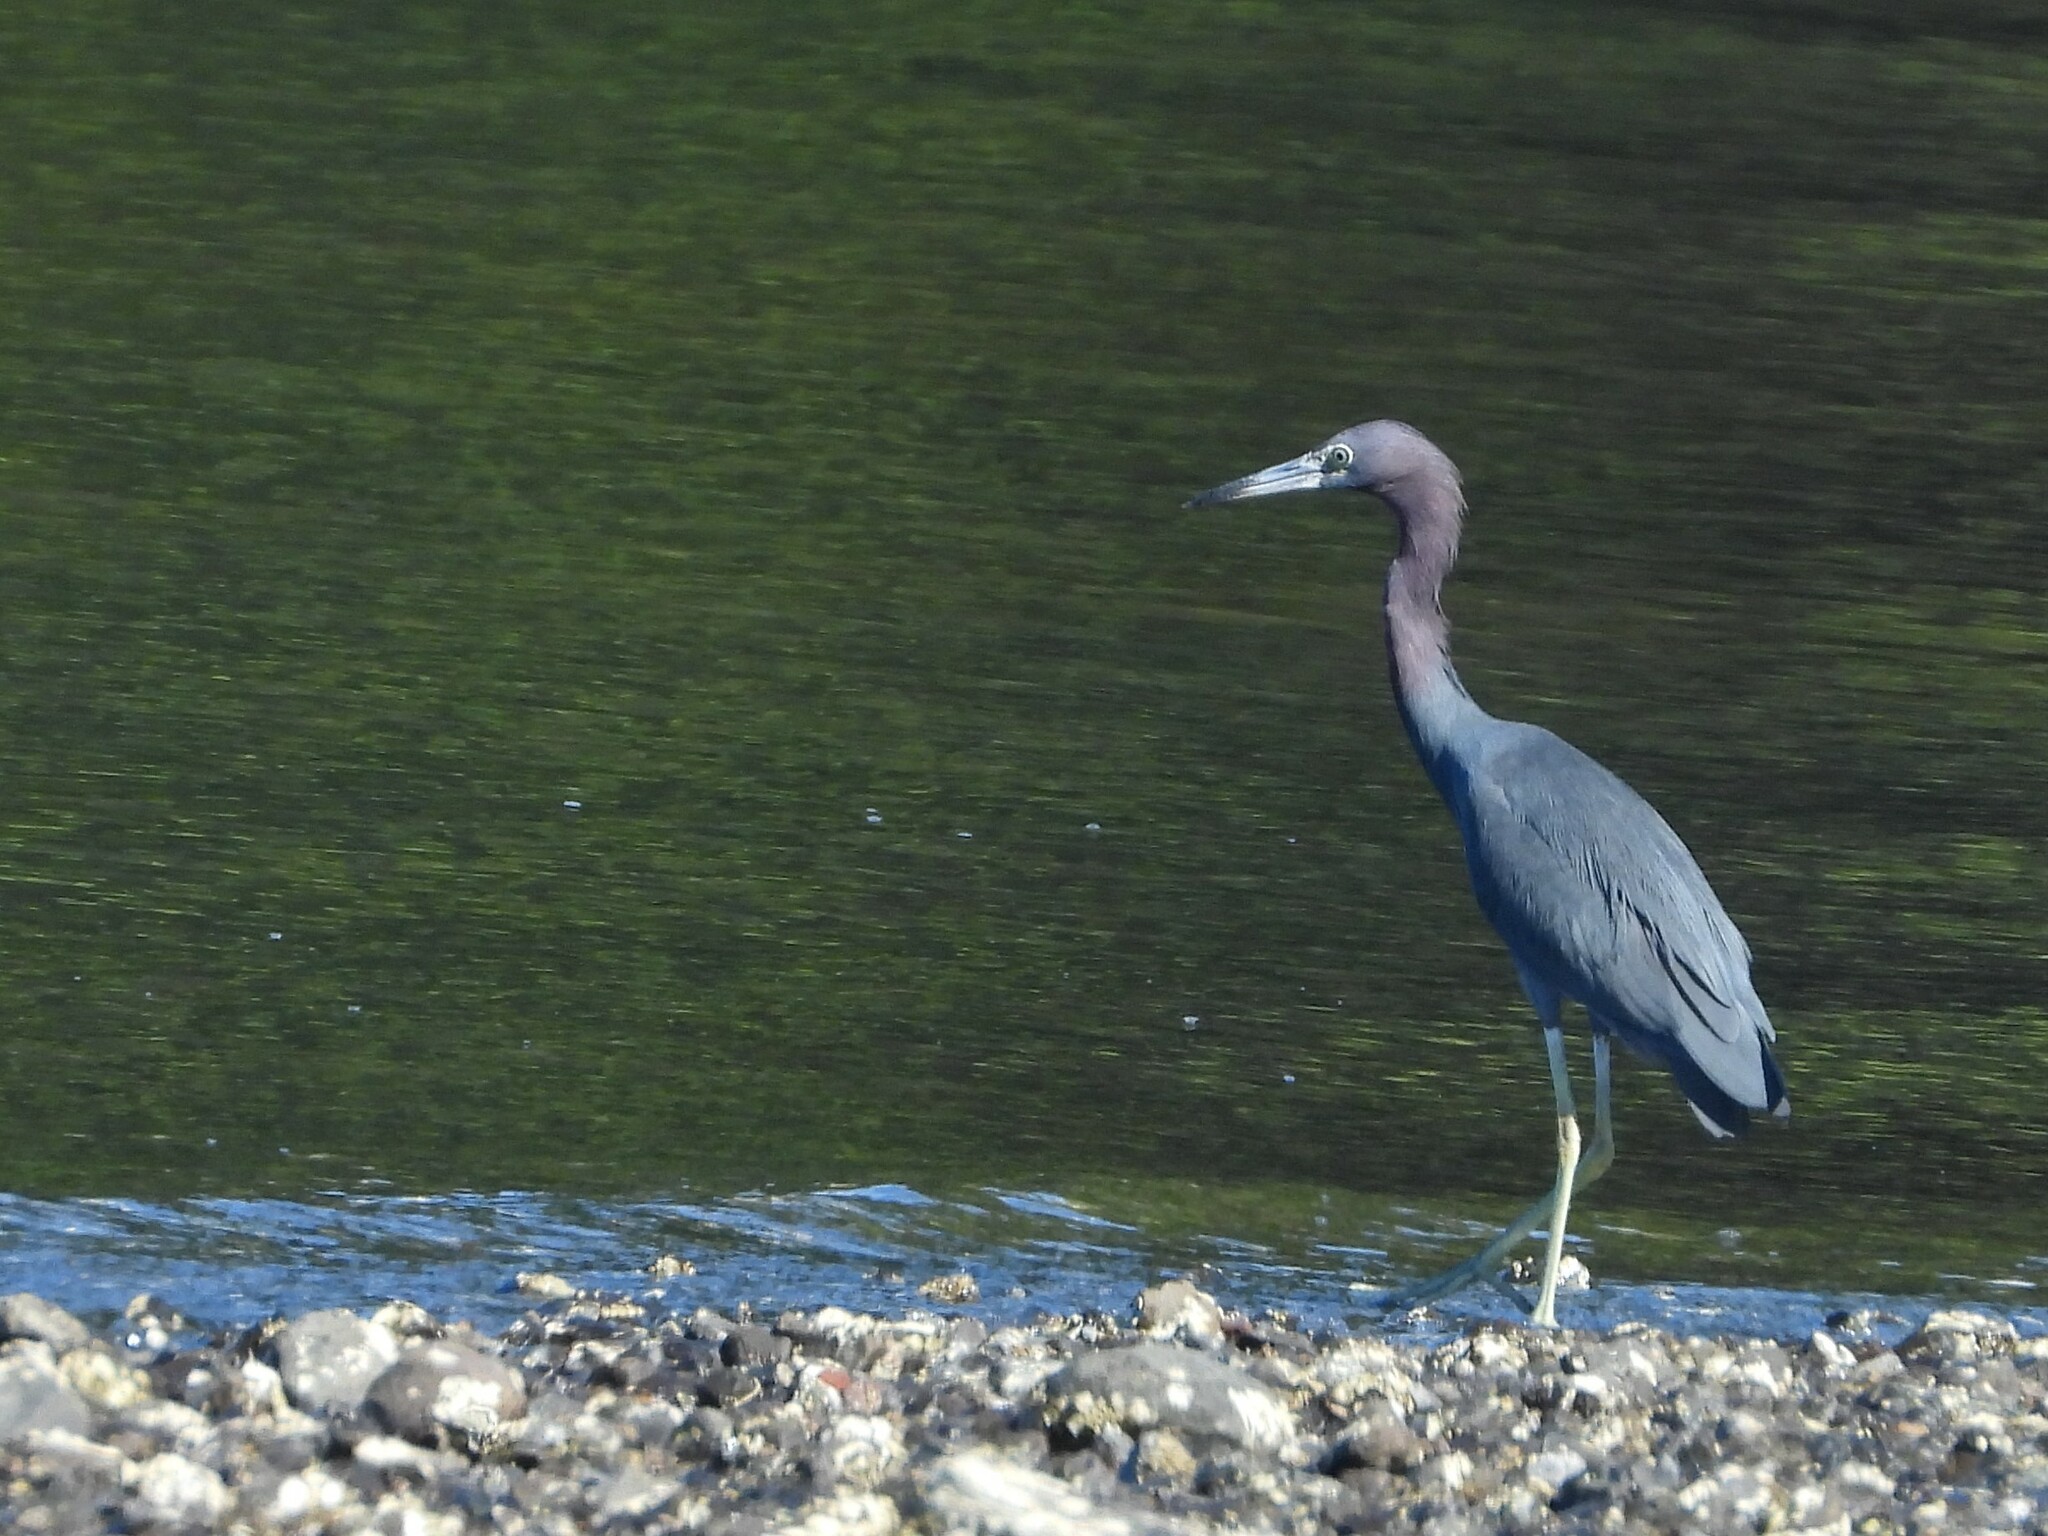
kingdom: Animalia
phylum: Chordata
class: Aves
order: Pelecaniformes
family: Ardeidae
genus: Egretta
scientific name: Egretta caerulea
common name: Little blue heron
